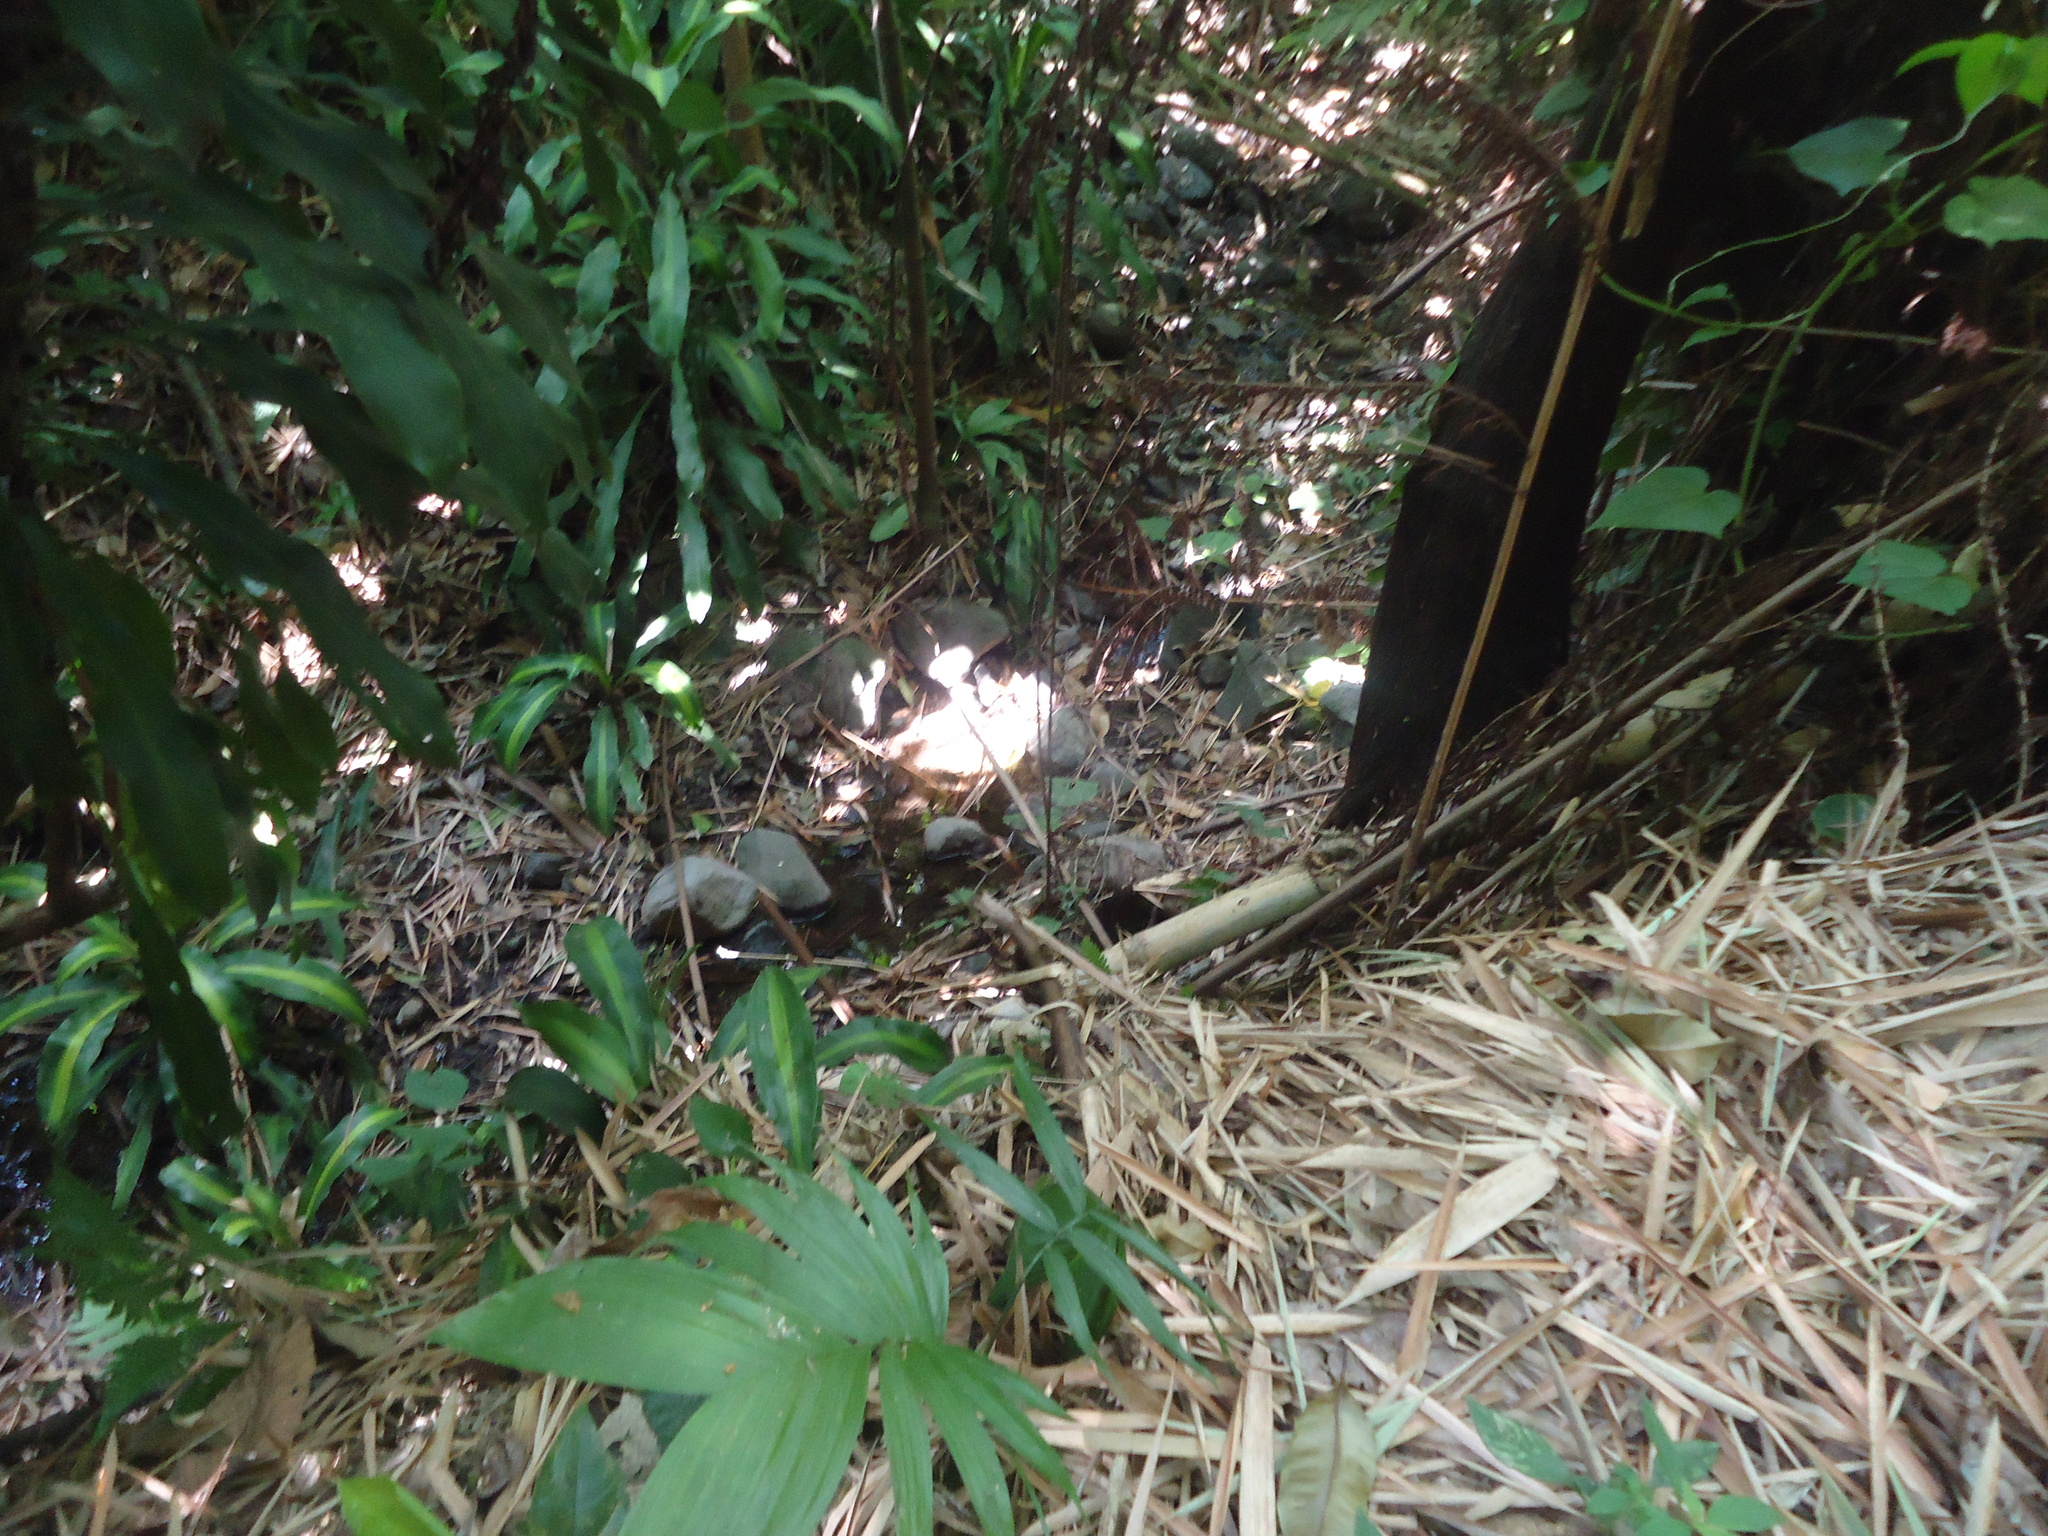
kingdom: Plantae
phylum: Tracheophyta
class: Liliopsida
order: Asparagales
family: Asparagaceae
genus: Dracaena
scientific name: Dracaena fragrans
